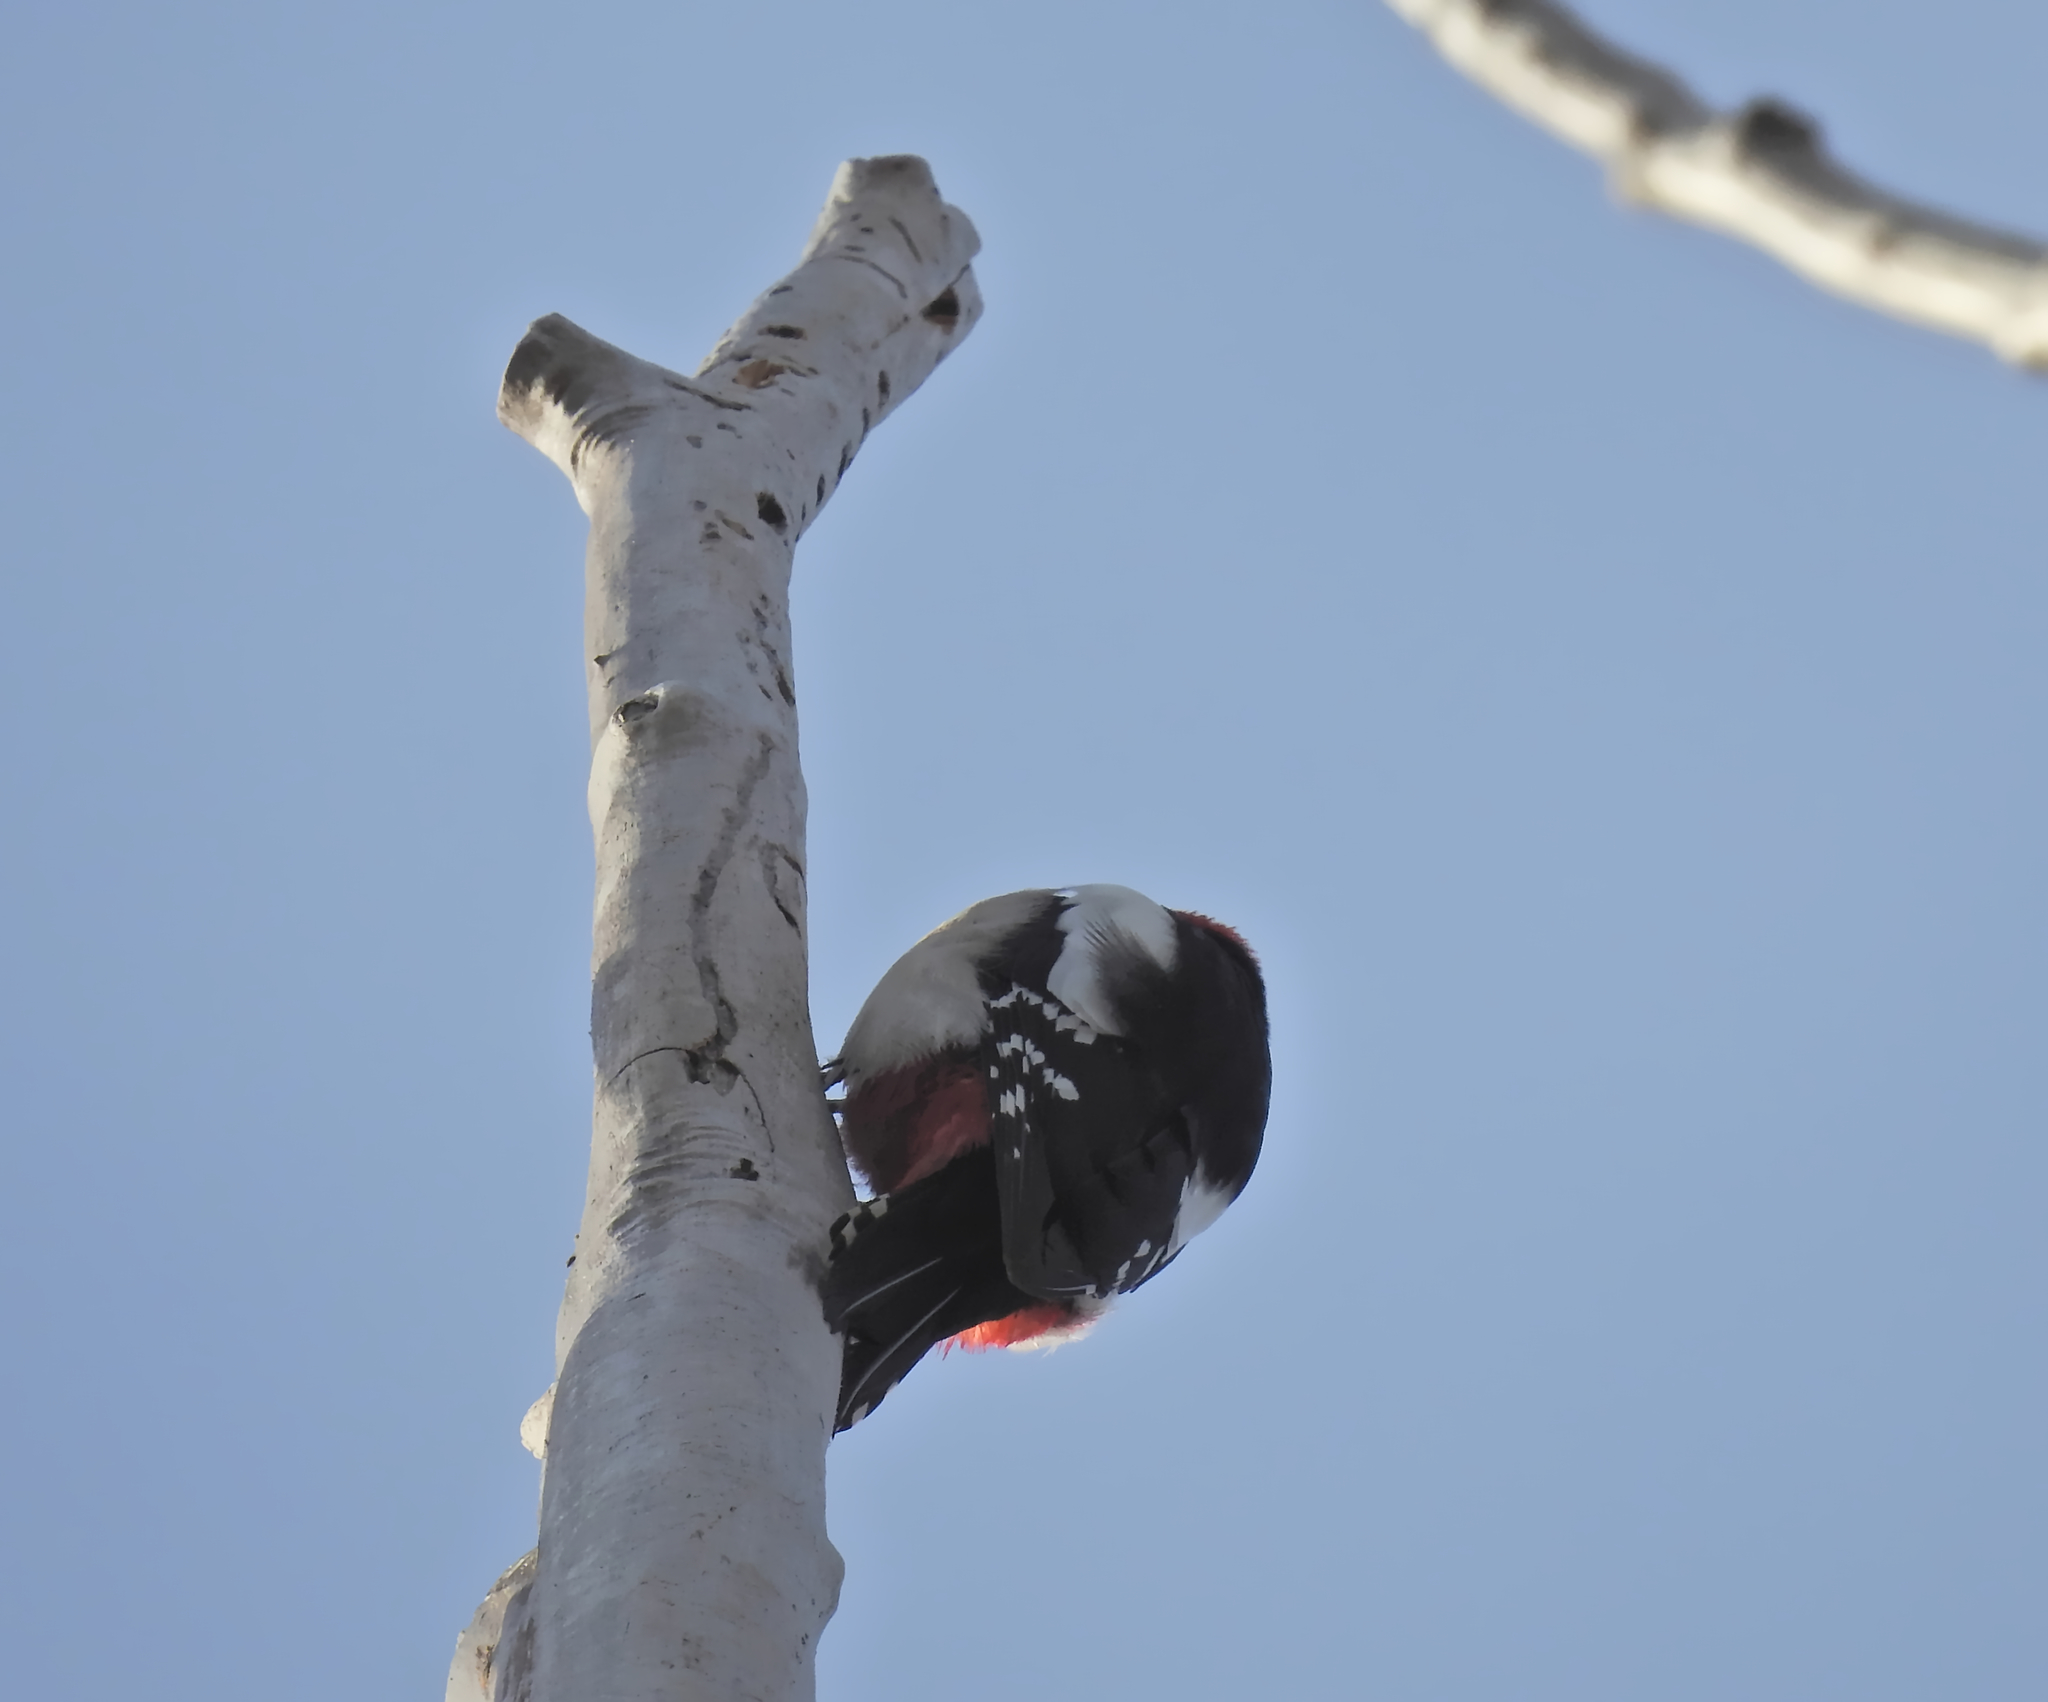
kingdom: Animalia
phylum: Chordata
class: Aves
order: Piciformes
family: Picidae
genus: Dendrocopos
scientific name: Dendrocopos major
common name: Great spotted woodpecker
